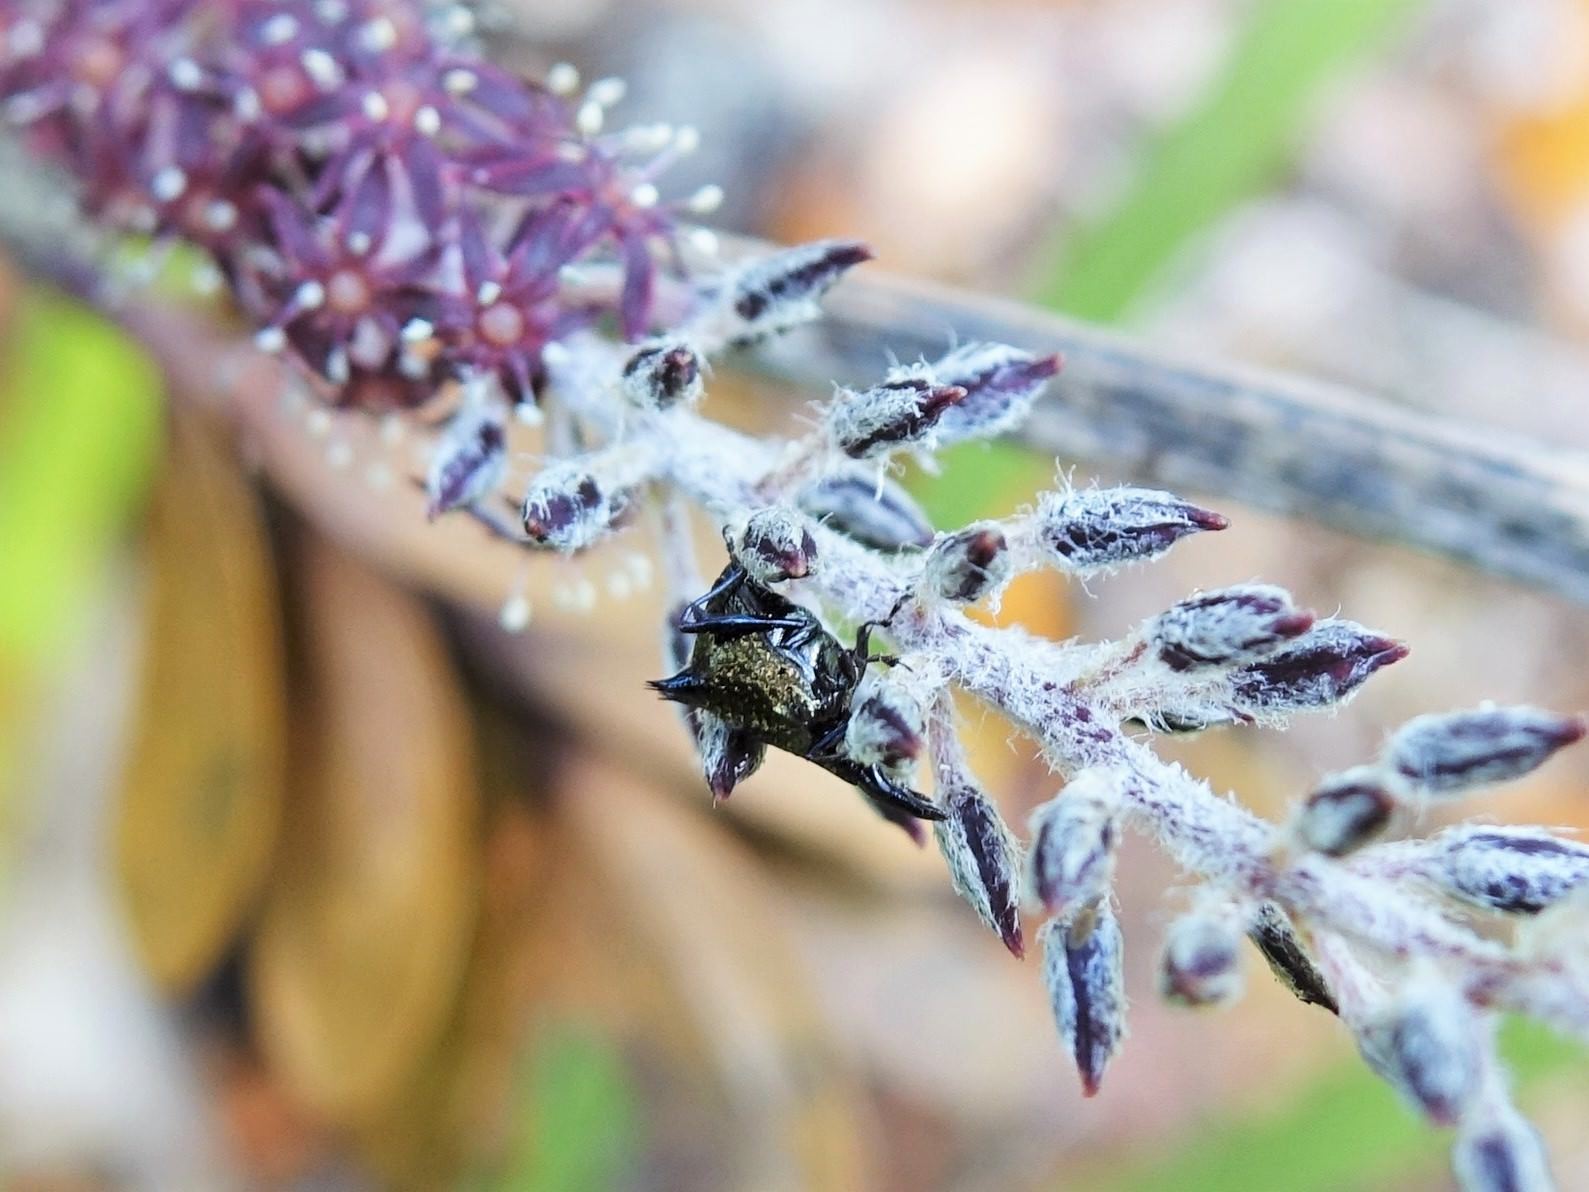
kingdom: Animalia
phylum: Arthropoda
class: Insecta
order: Coleoptera
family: Curculionidae
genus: Scolopterus
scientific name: Scolopterus aequus
